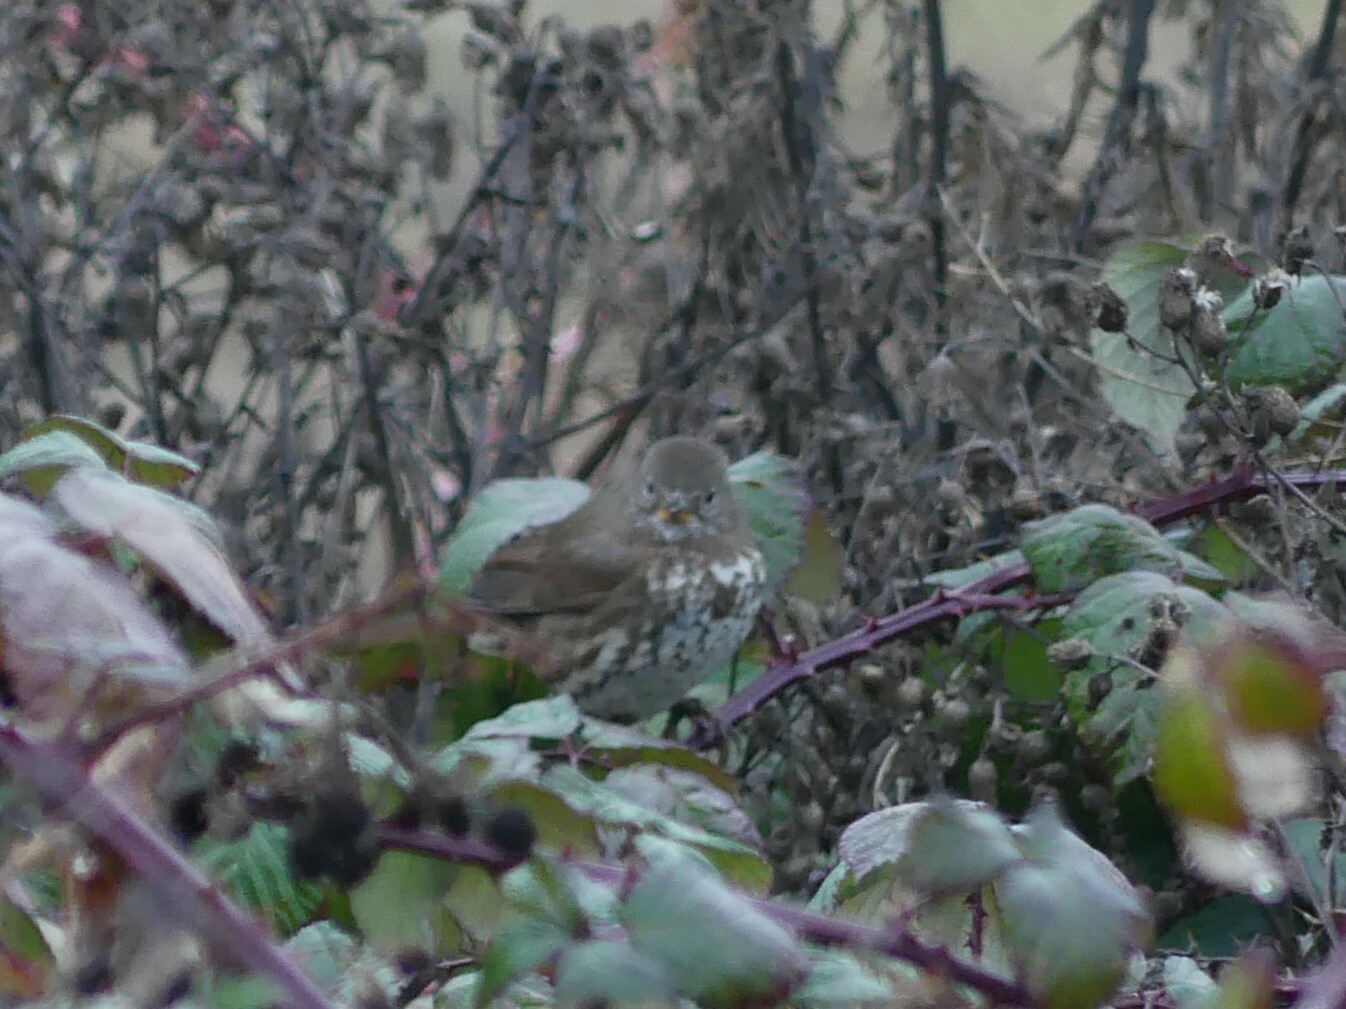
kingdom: Animalia
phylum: Chordata
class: Aves
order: Passeriformes
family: Passerellidae
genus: Passerella
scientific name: Passerella iliaca
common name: Fox sparrow
